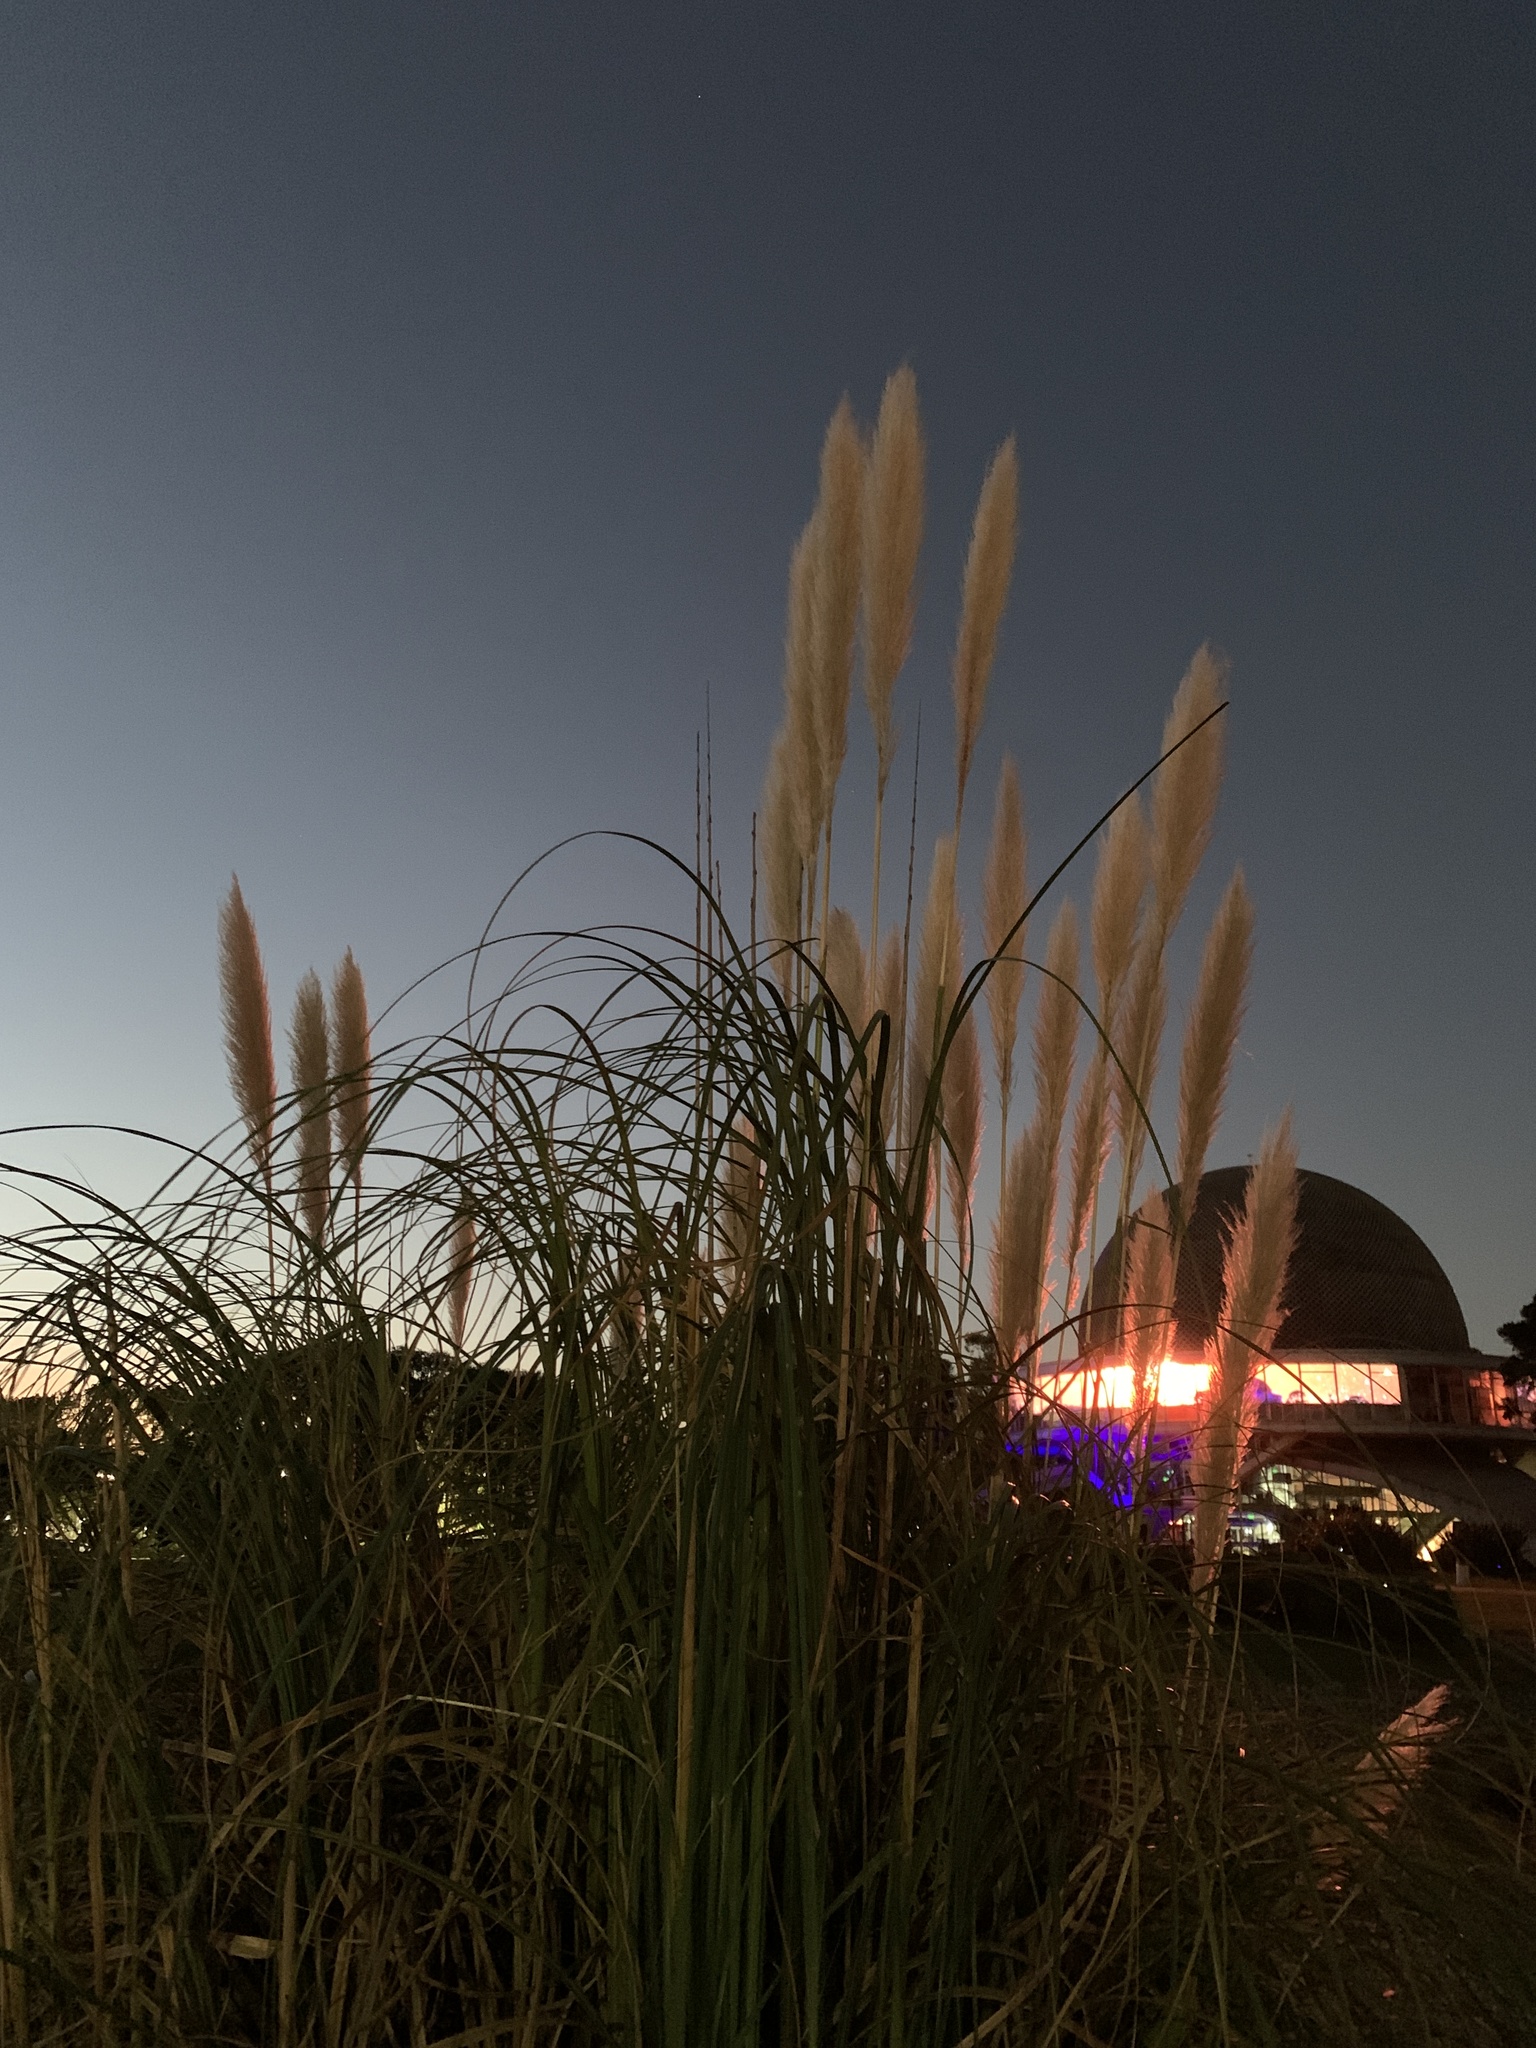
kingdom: Plantae
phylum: Tracheophyta
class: Liliopsida
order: Poales
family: Poaceae
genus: Cortaderia
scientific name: Cortaderia selloana
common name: Uruguayan pampas grass
